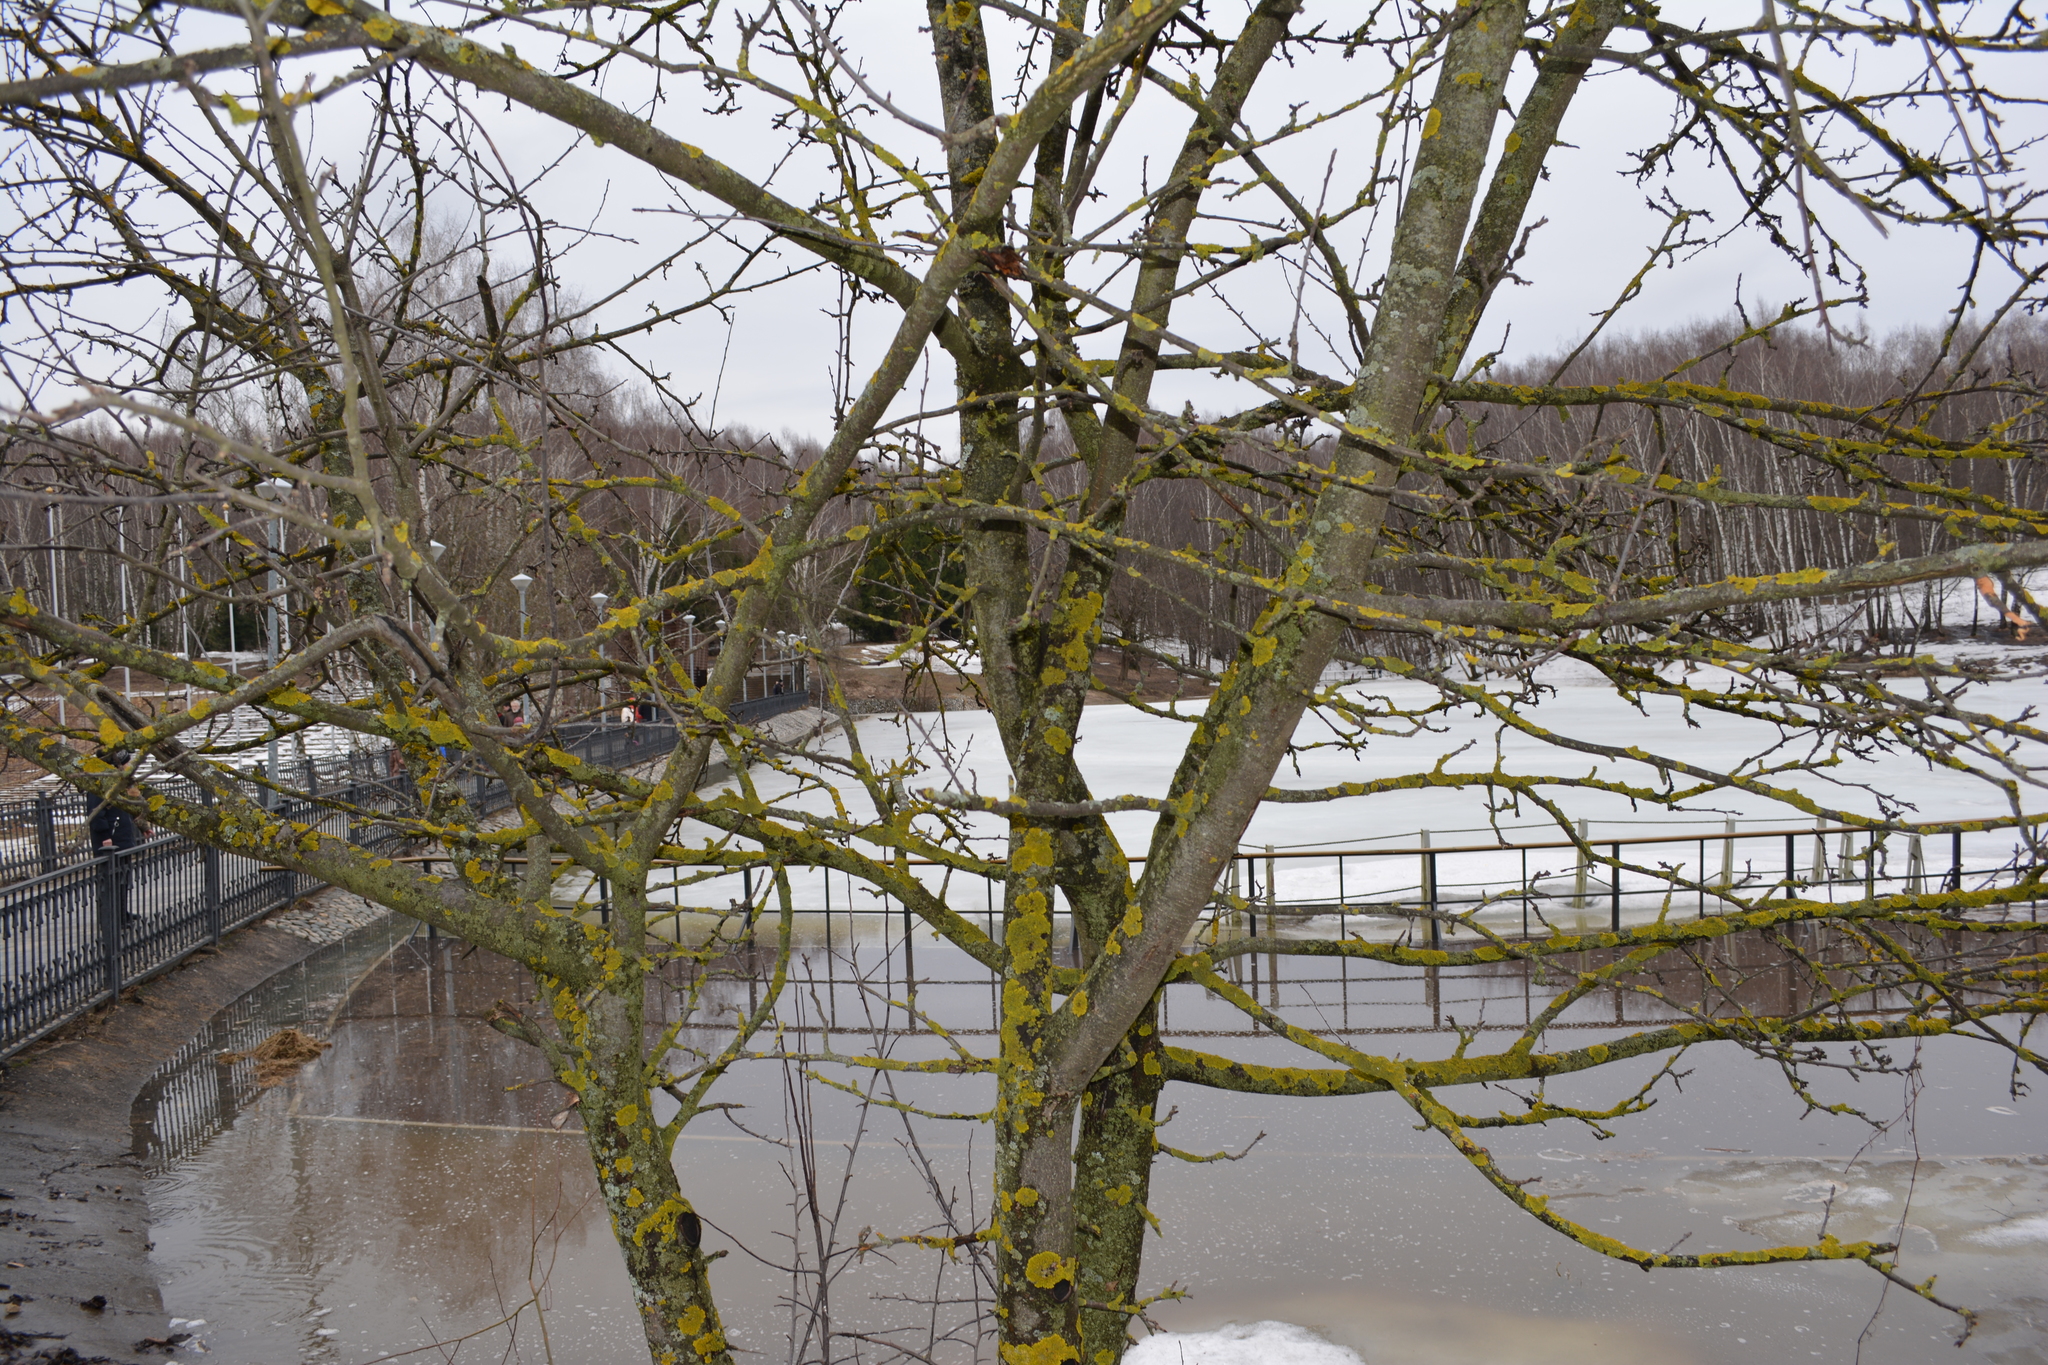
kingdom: Fungi
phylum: Ascomycota
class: Lecanoromycetes
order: Teloschistales
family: Teloschistaceae
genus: Xanthoria
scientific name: Xanthoria parietina
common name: Common orange lichen
